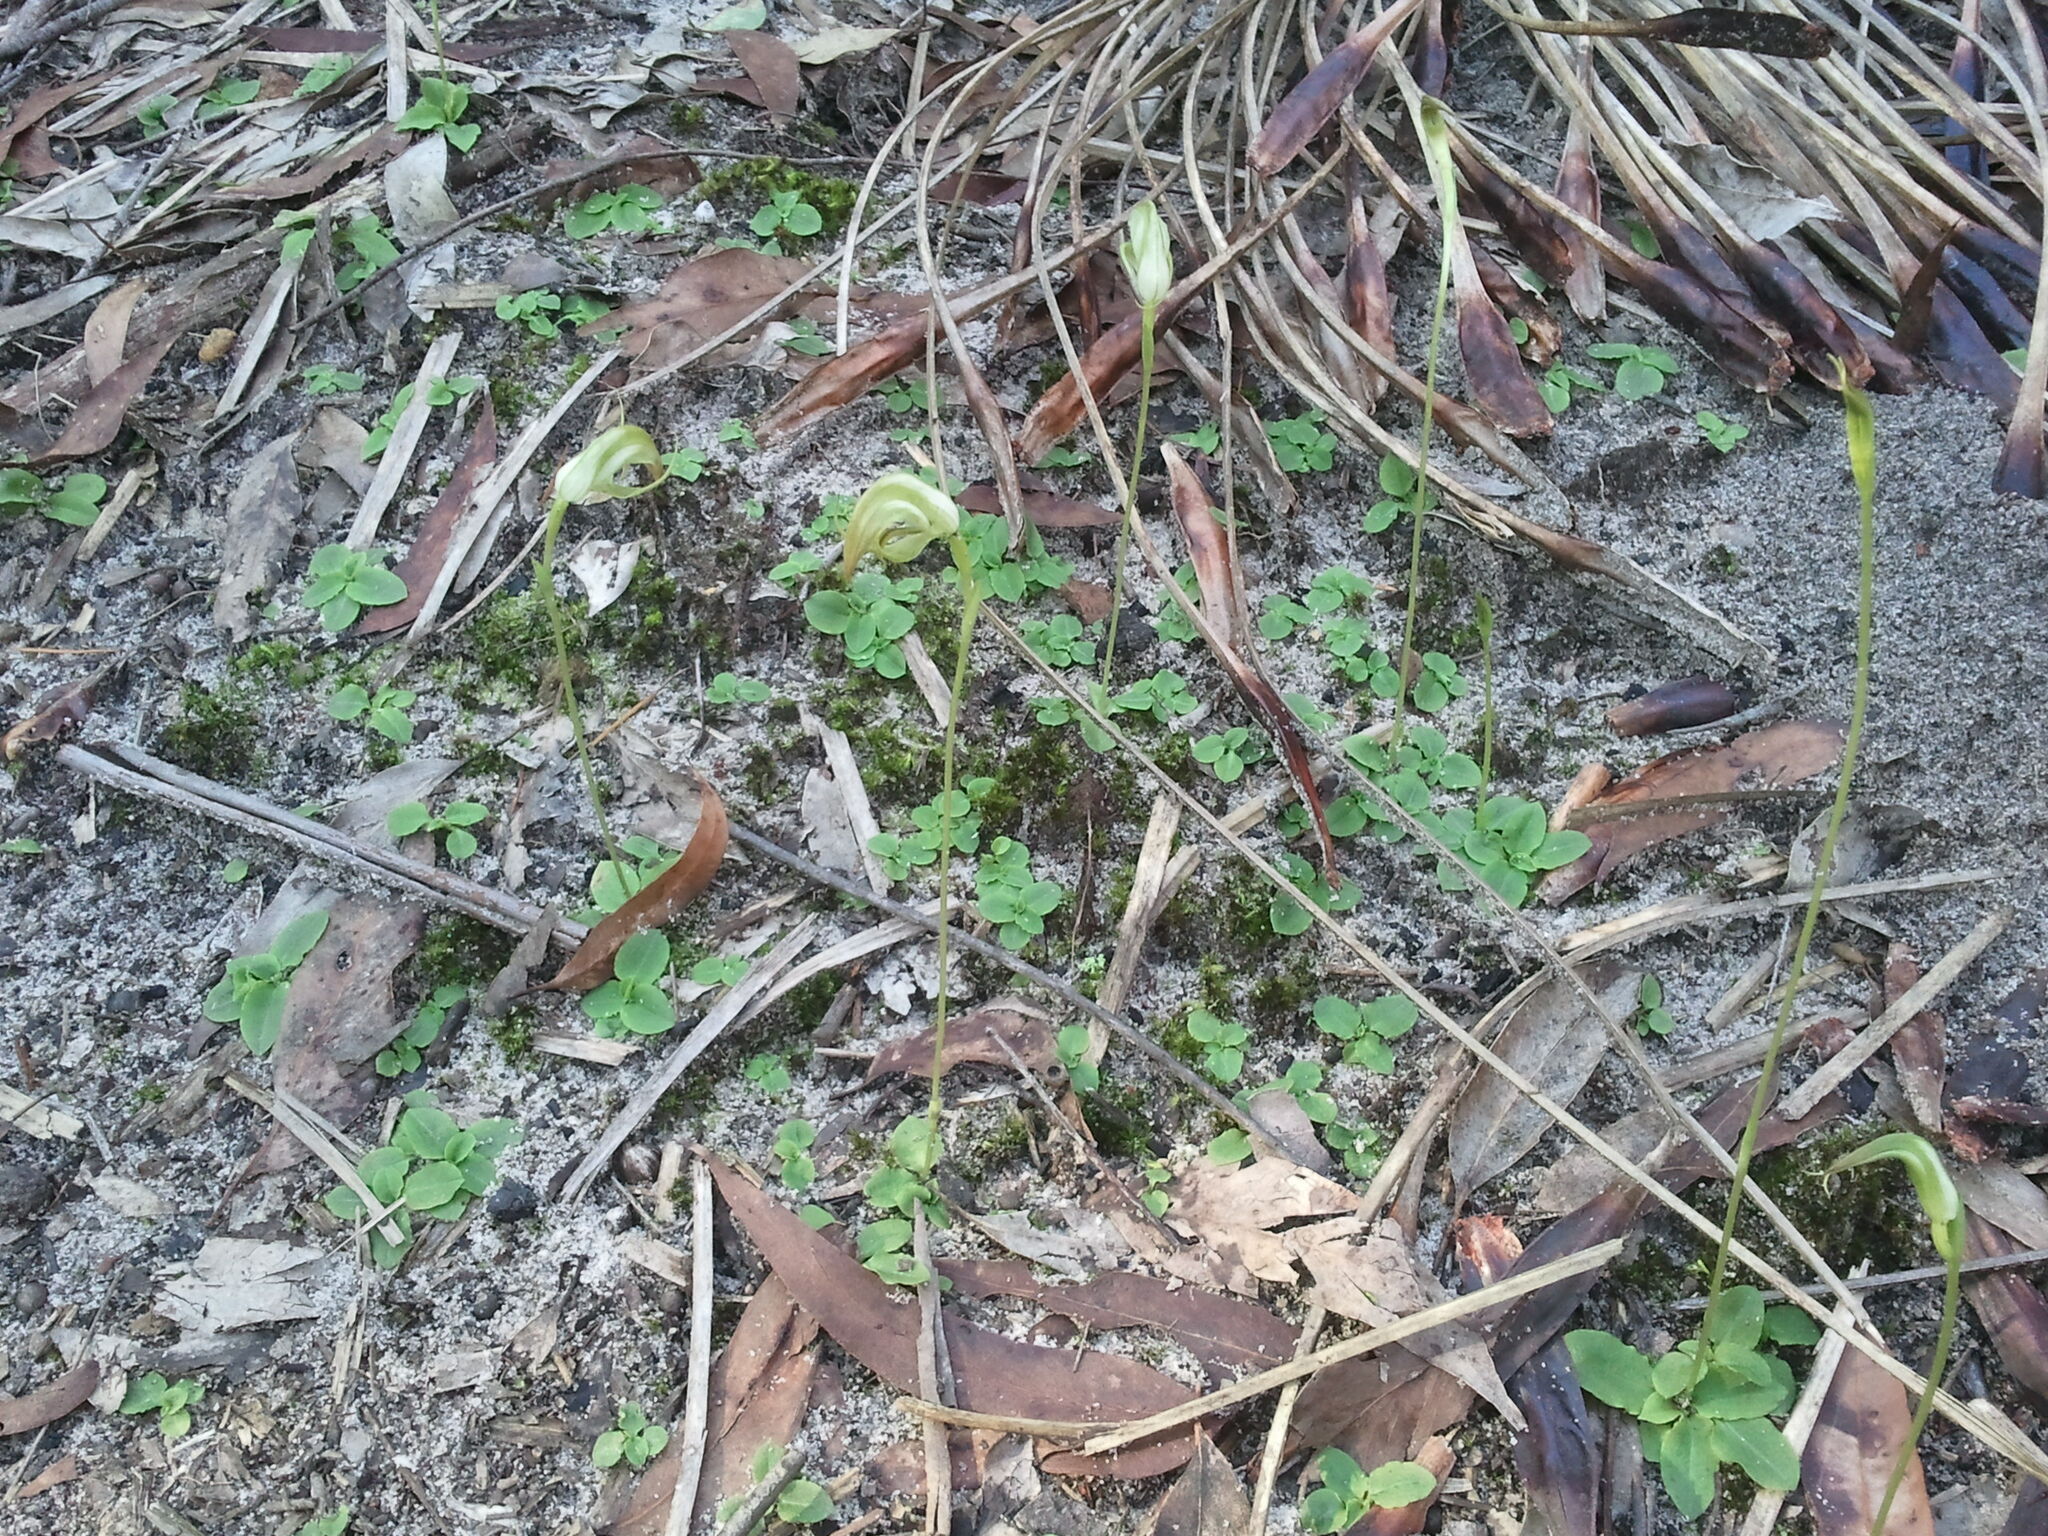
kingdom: Plantae
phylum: Tracheophyta
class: Liliopsida
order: Asparagales
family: Orchidaceae
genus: Pterostylis
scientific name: Pterostylis acuminata
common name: Pointed greenhood
